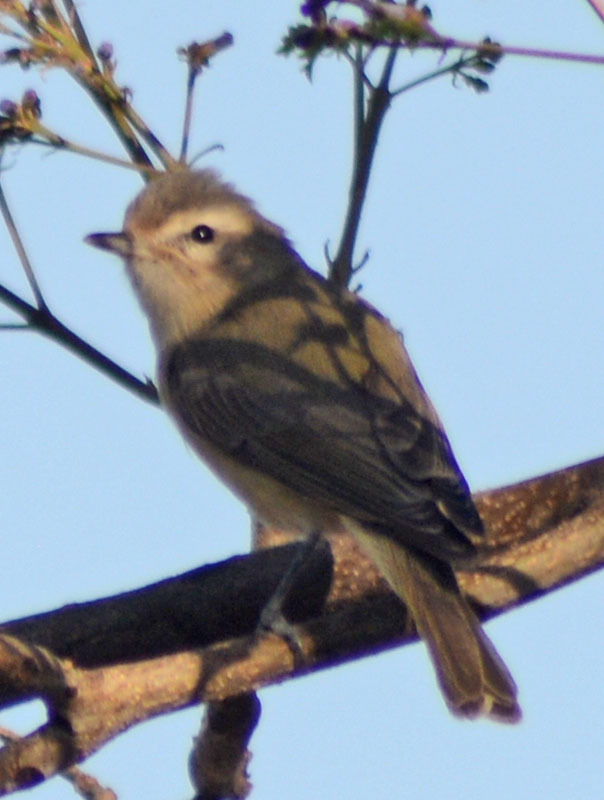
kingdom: Animalia
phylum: Chordata
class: Aves
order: Passeriformes
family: Vireonidae
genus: Vireo
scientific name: Vireo gilvus
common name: Warbling vireo
